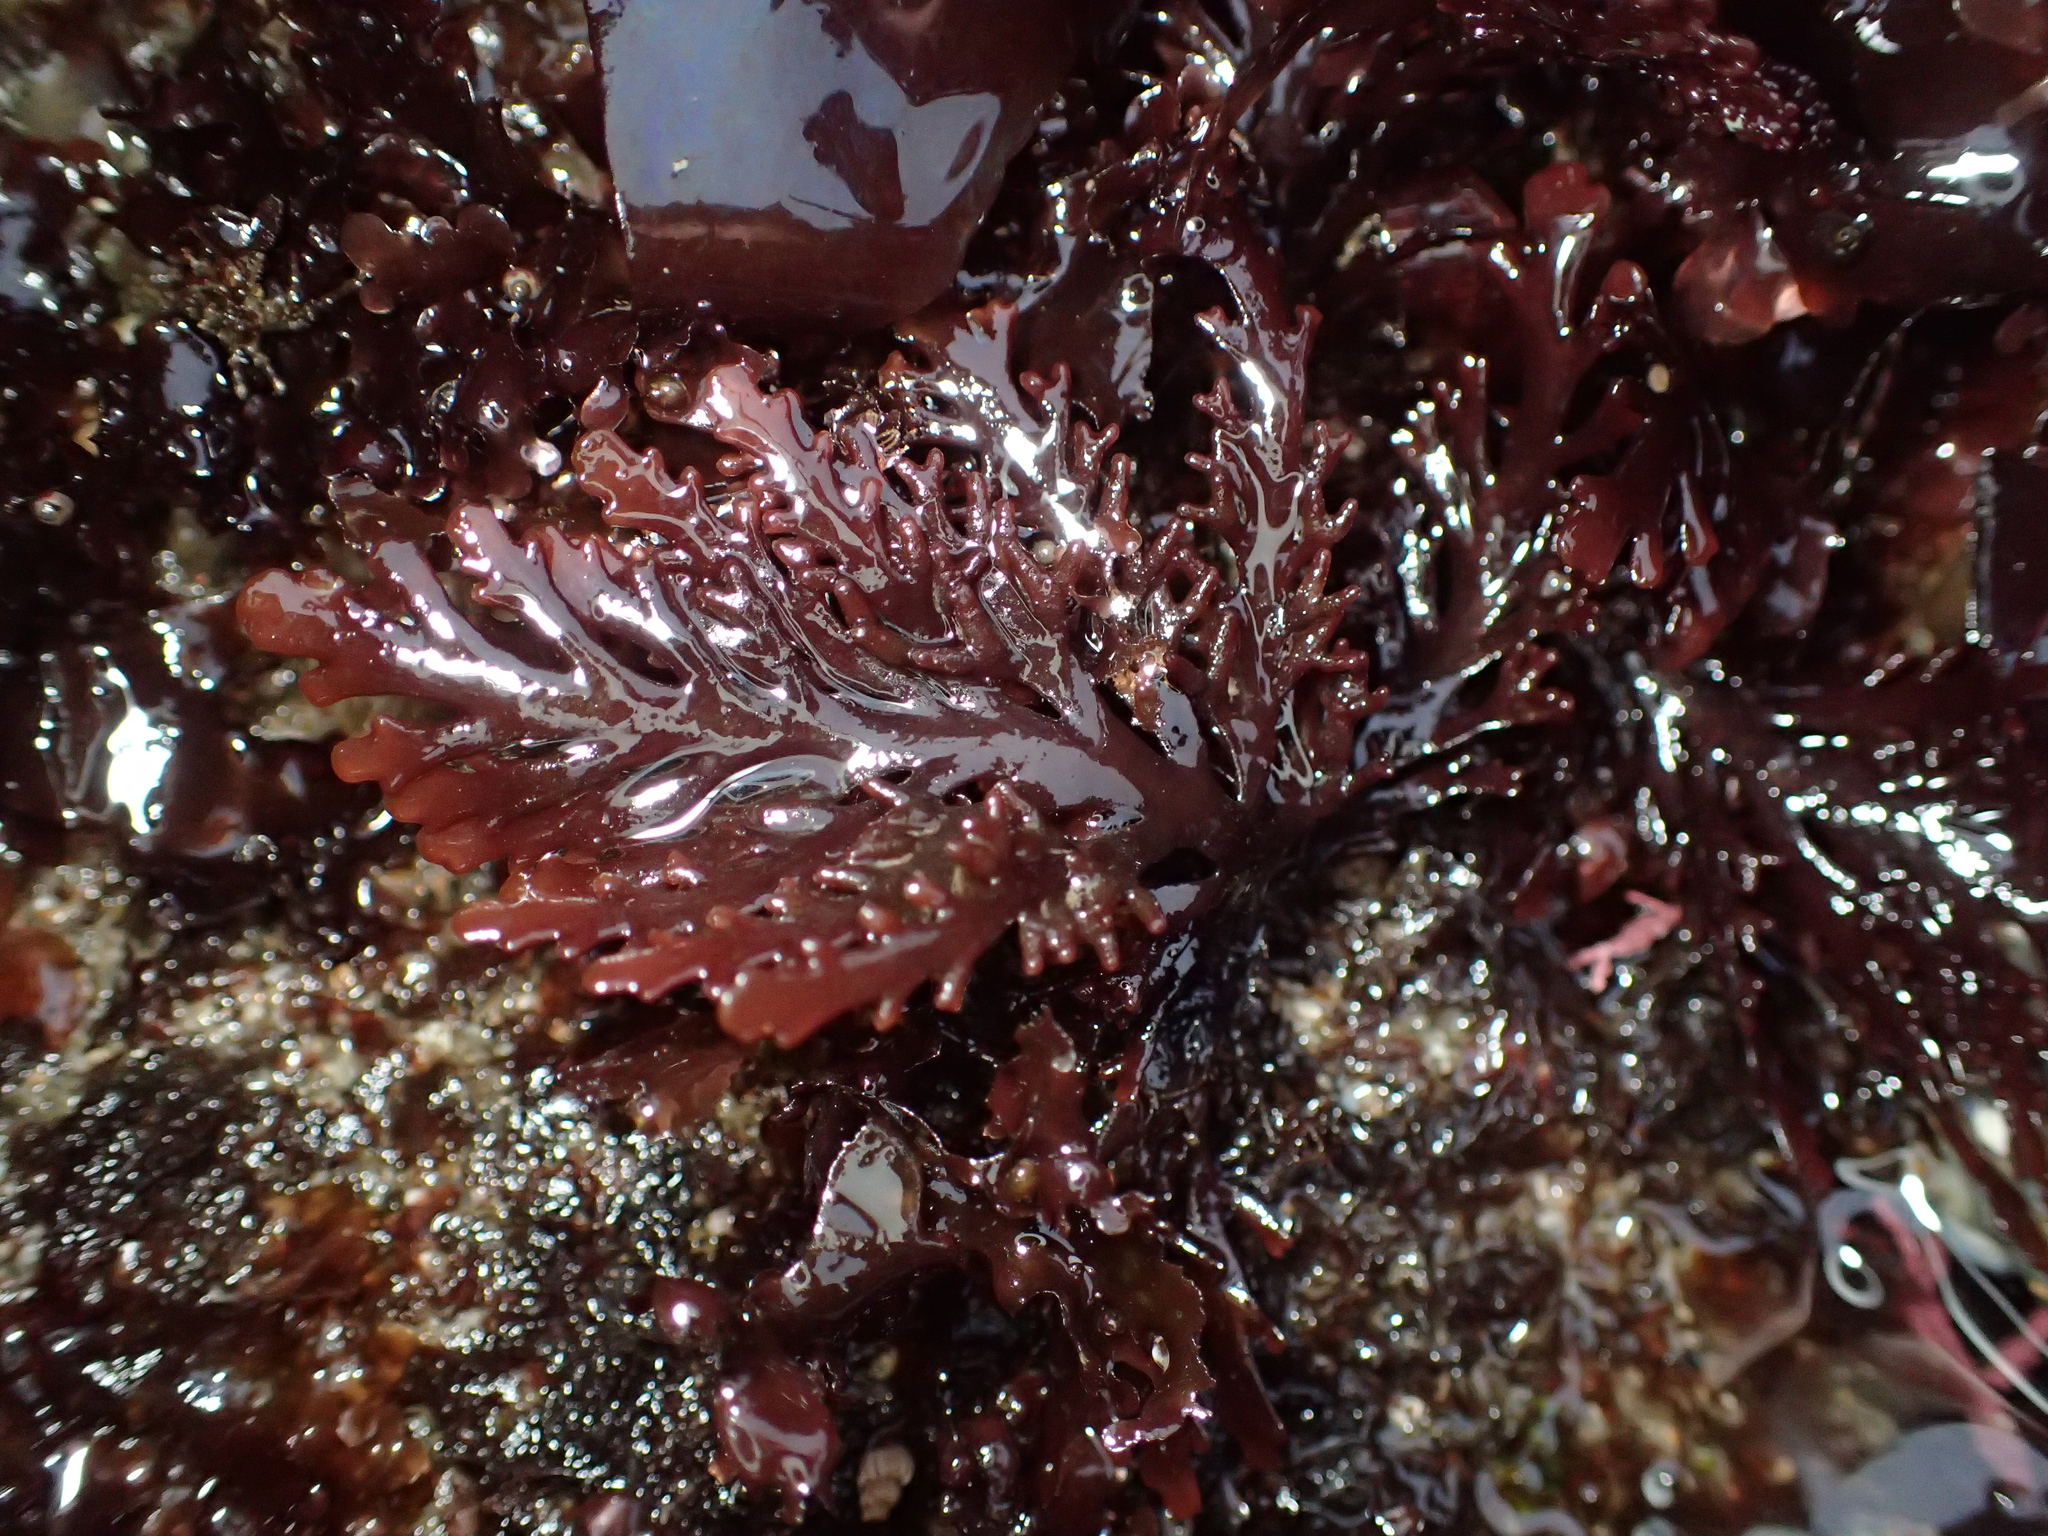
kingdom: Plantae
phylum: Rhodophyta
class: Florideophyceae
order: Ceramiales
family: Rhodomelaceae
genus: Osmundea
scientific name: Osmundea spectabilis
